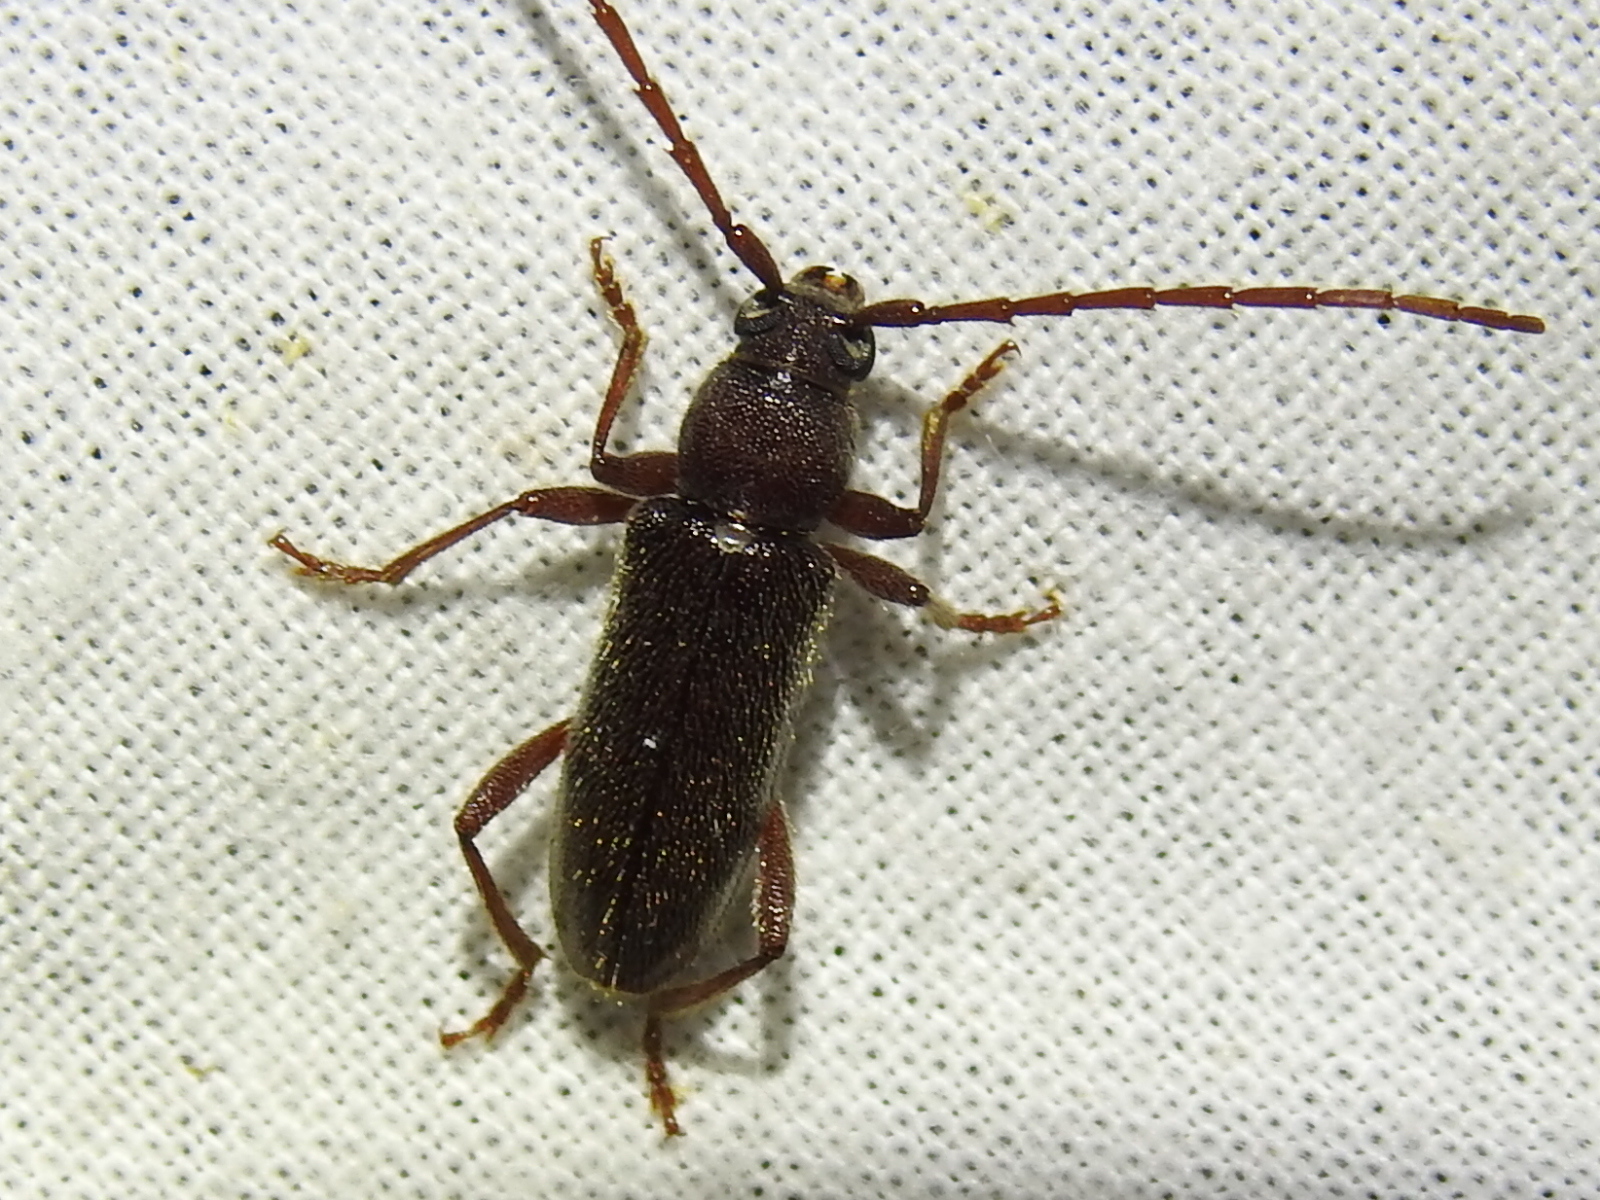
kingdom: Animalia
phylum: Arthropoda
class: Insecta
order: Coleoptera
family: Cerambycidae
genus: Anelaphus
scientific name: Anelaphus moestus
